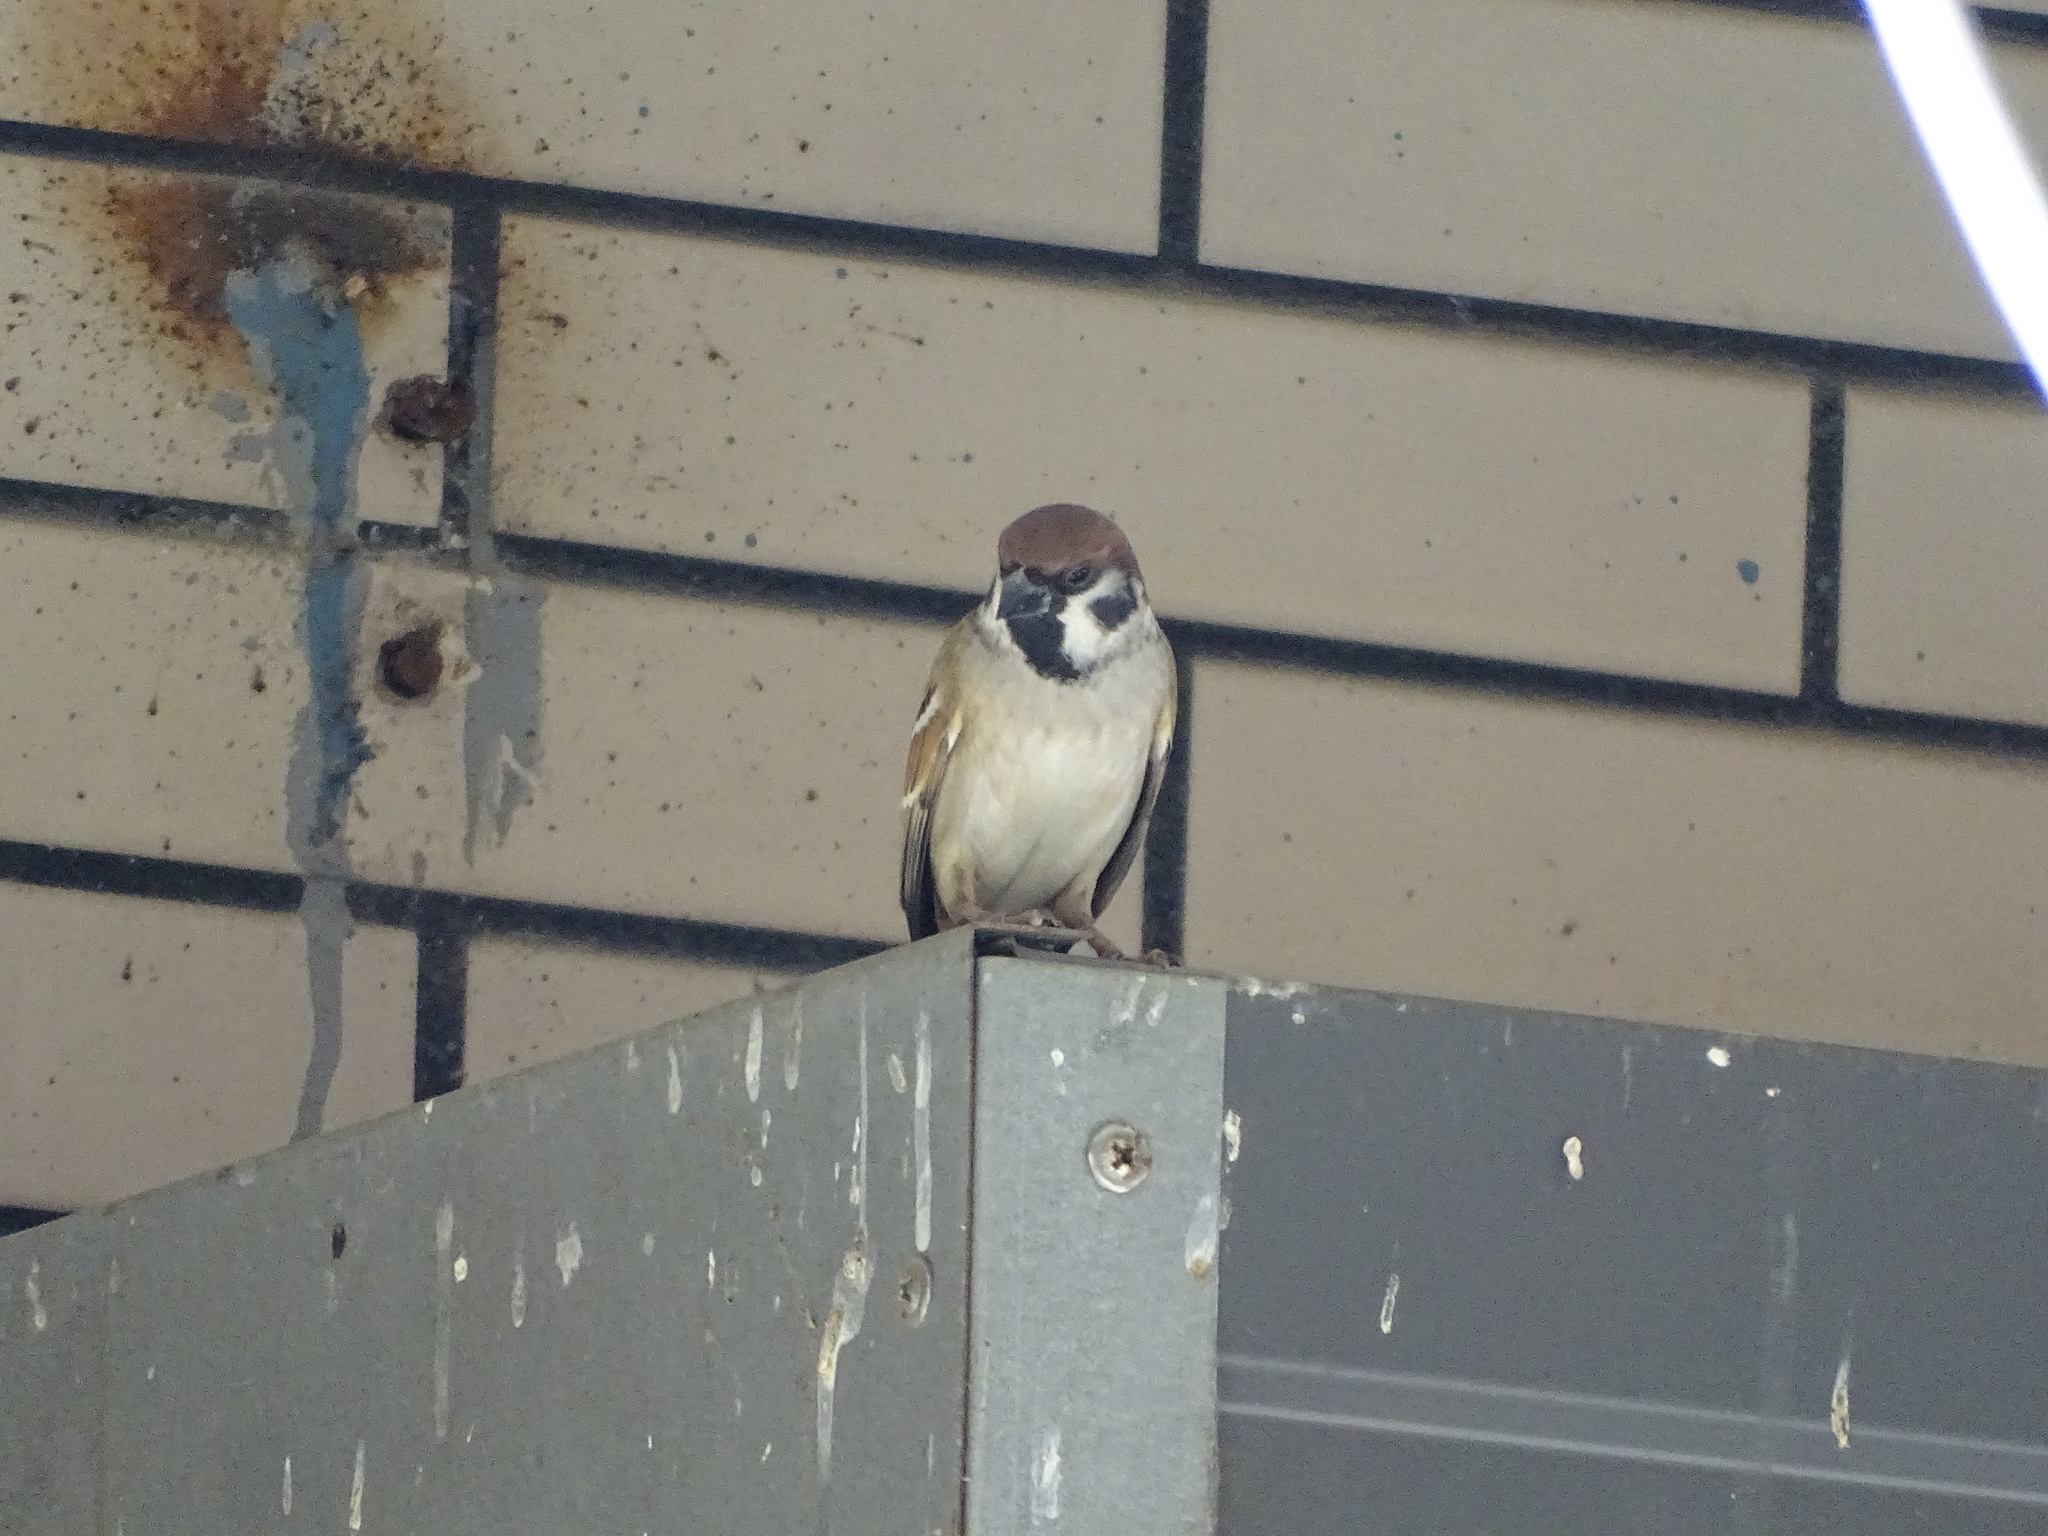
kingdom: Animalia
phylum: Chordata
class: Aves
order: Passeriformes
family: Passeridae
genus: Passer
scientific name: Passer montanus
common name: Eurasian tree sparrow
